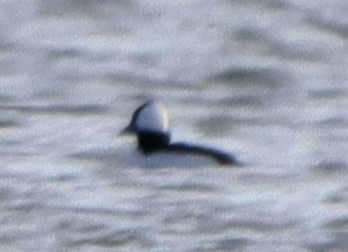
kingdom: Animalia
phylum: Chordata
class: Aves
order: Anseriformes
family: Anatidae
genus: Bucephala
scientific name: Bucephala albeola
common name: Bufflehead
